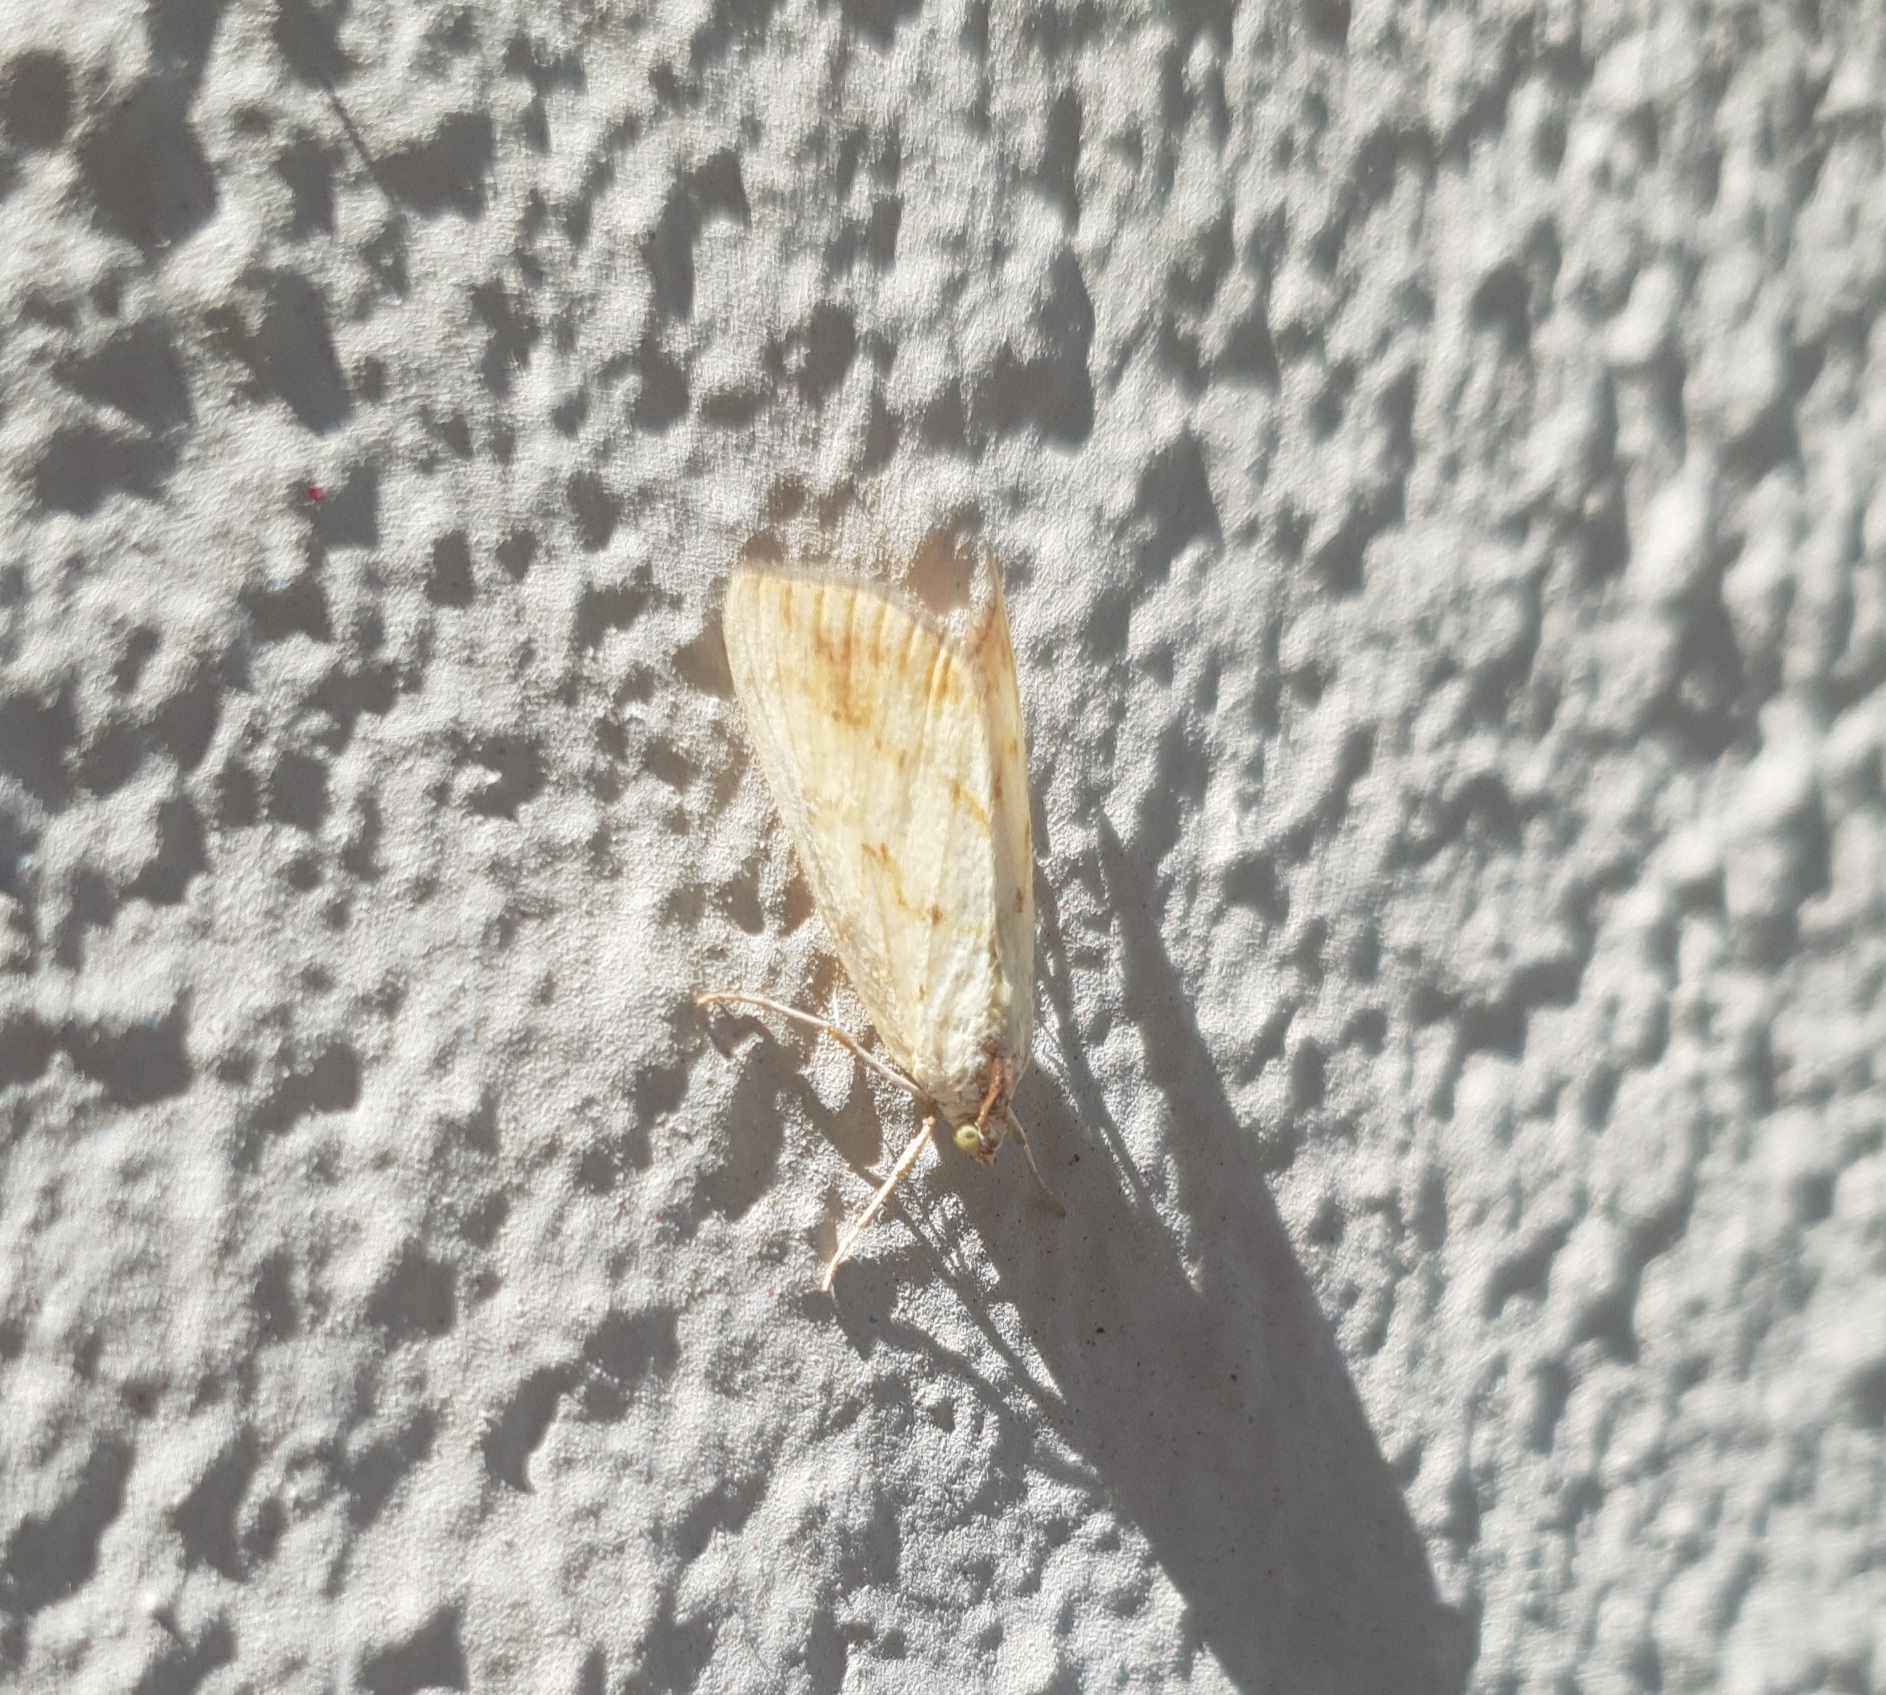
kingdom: Animalia
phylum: Arthropoda
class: Insecta
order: Lepidoptera
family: Crambidae
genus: Evergestis
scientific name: Evergestis extimalis
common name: Marbled yellow pearl
